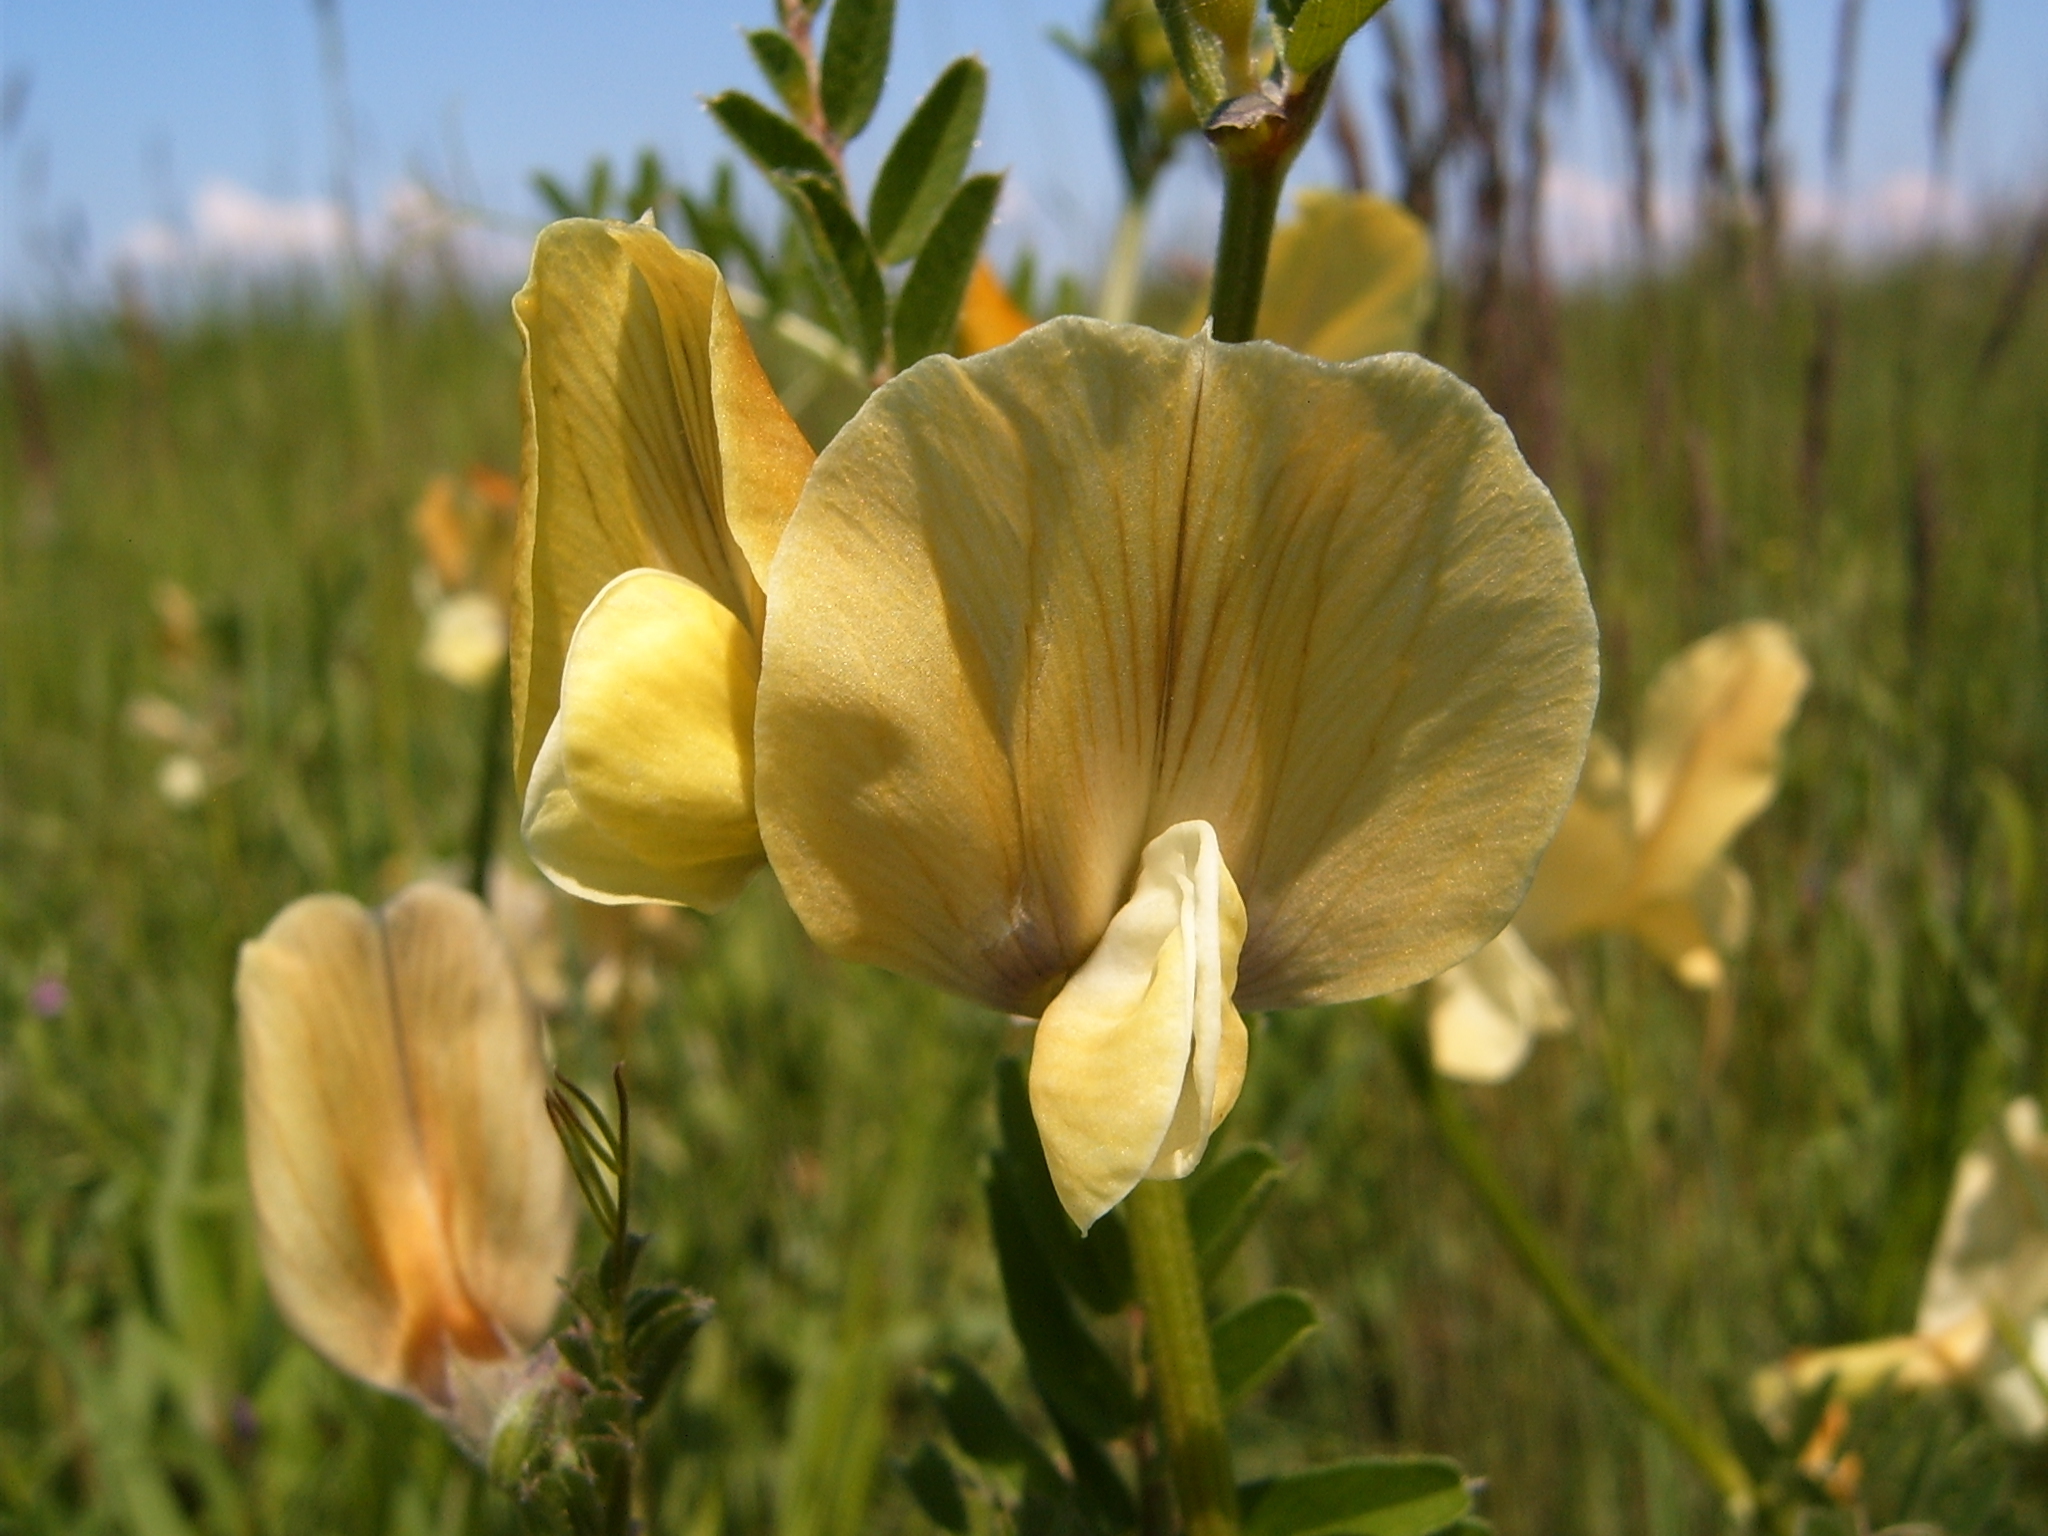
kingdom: Plantae
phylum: Tracheophyta
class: Magnoliopsida
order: Fabales
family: Fabaceae
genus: Vicia
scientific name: Vicia grandiflora
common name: Large yellow vetch
